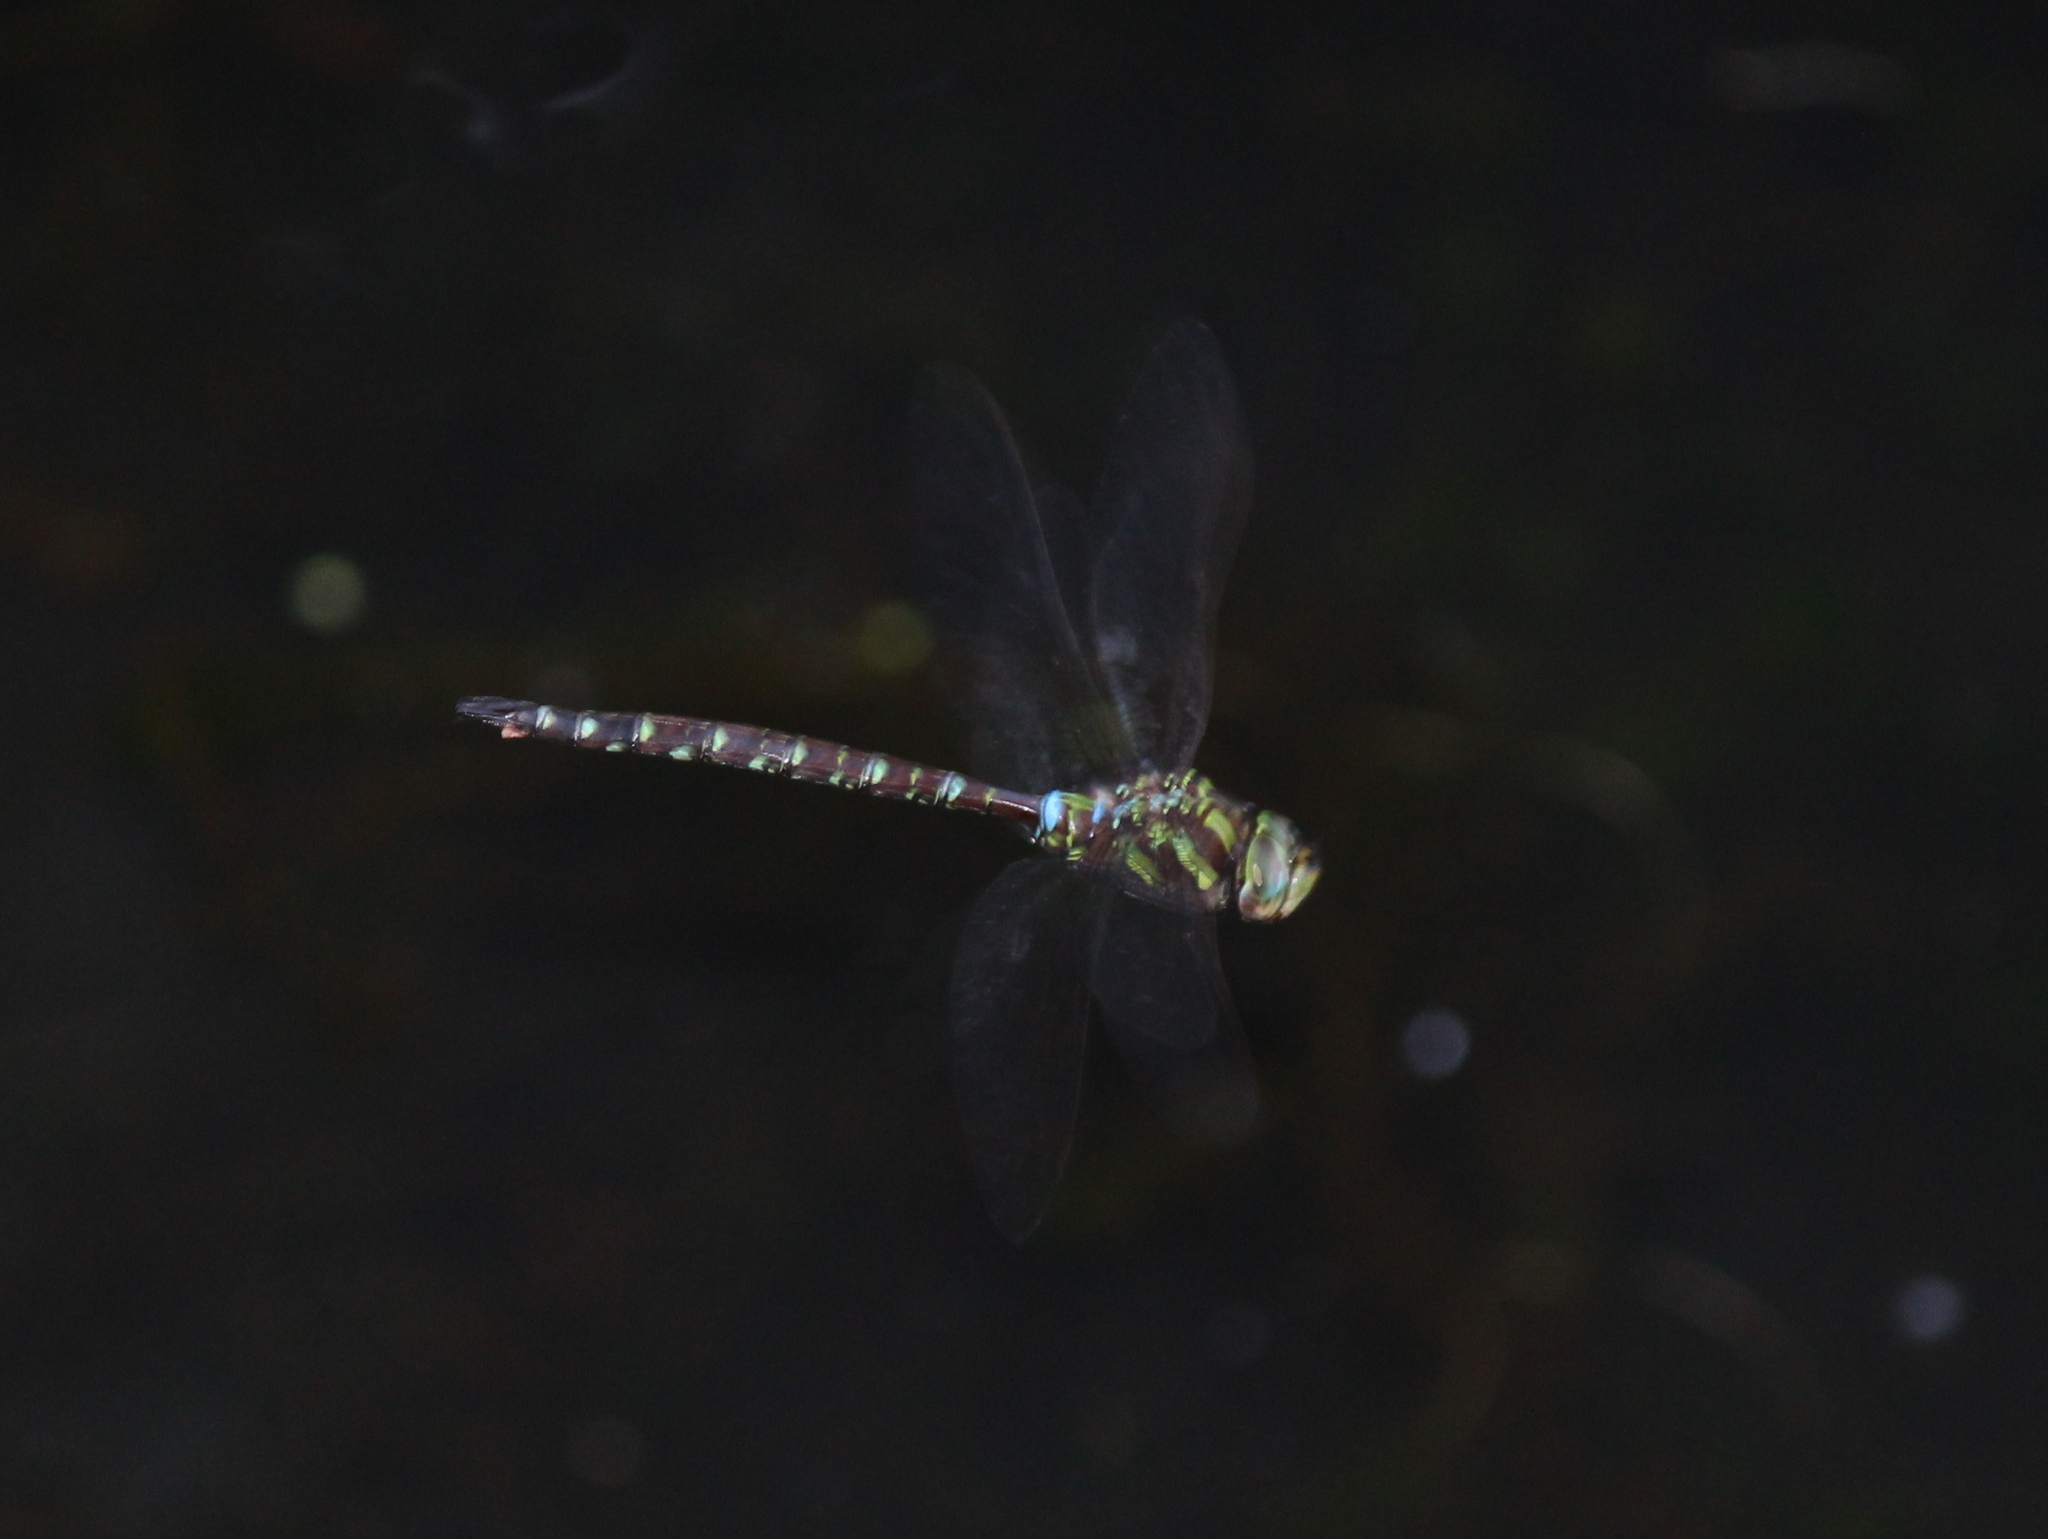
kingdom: Animalia
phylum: Arthropoda
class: Insecta
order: Odonata
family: Aeshnidae
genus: Aeshna
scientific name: Aeshna umbrosa
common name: Shadow darner
